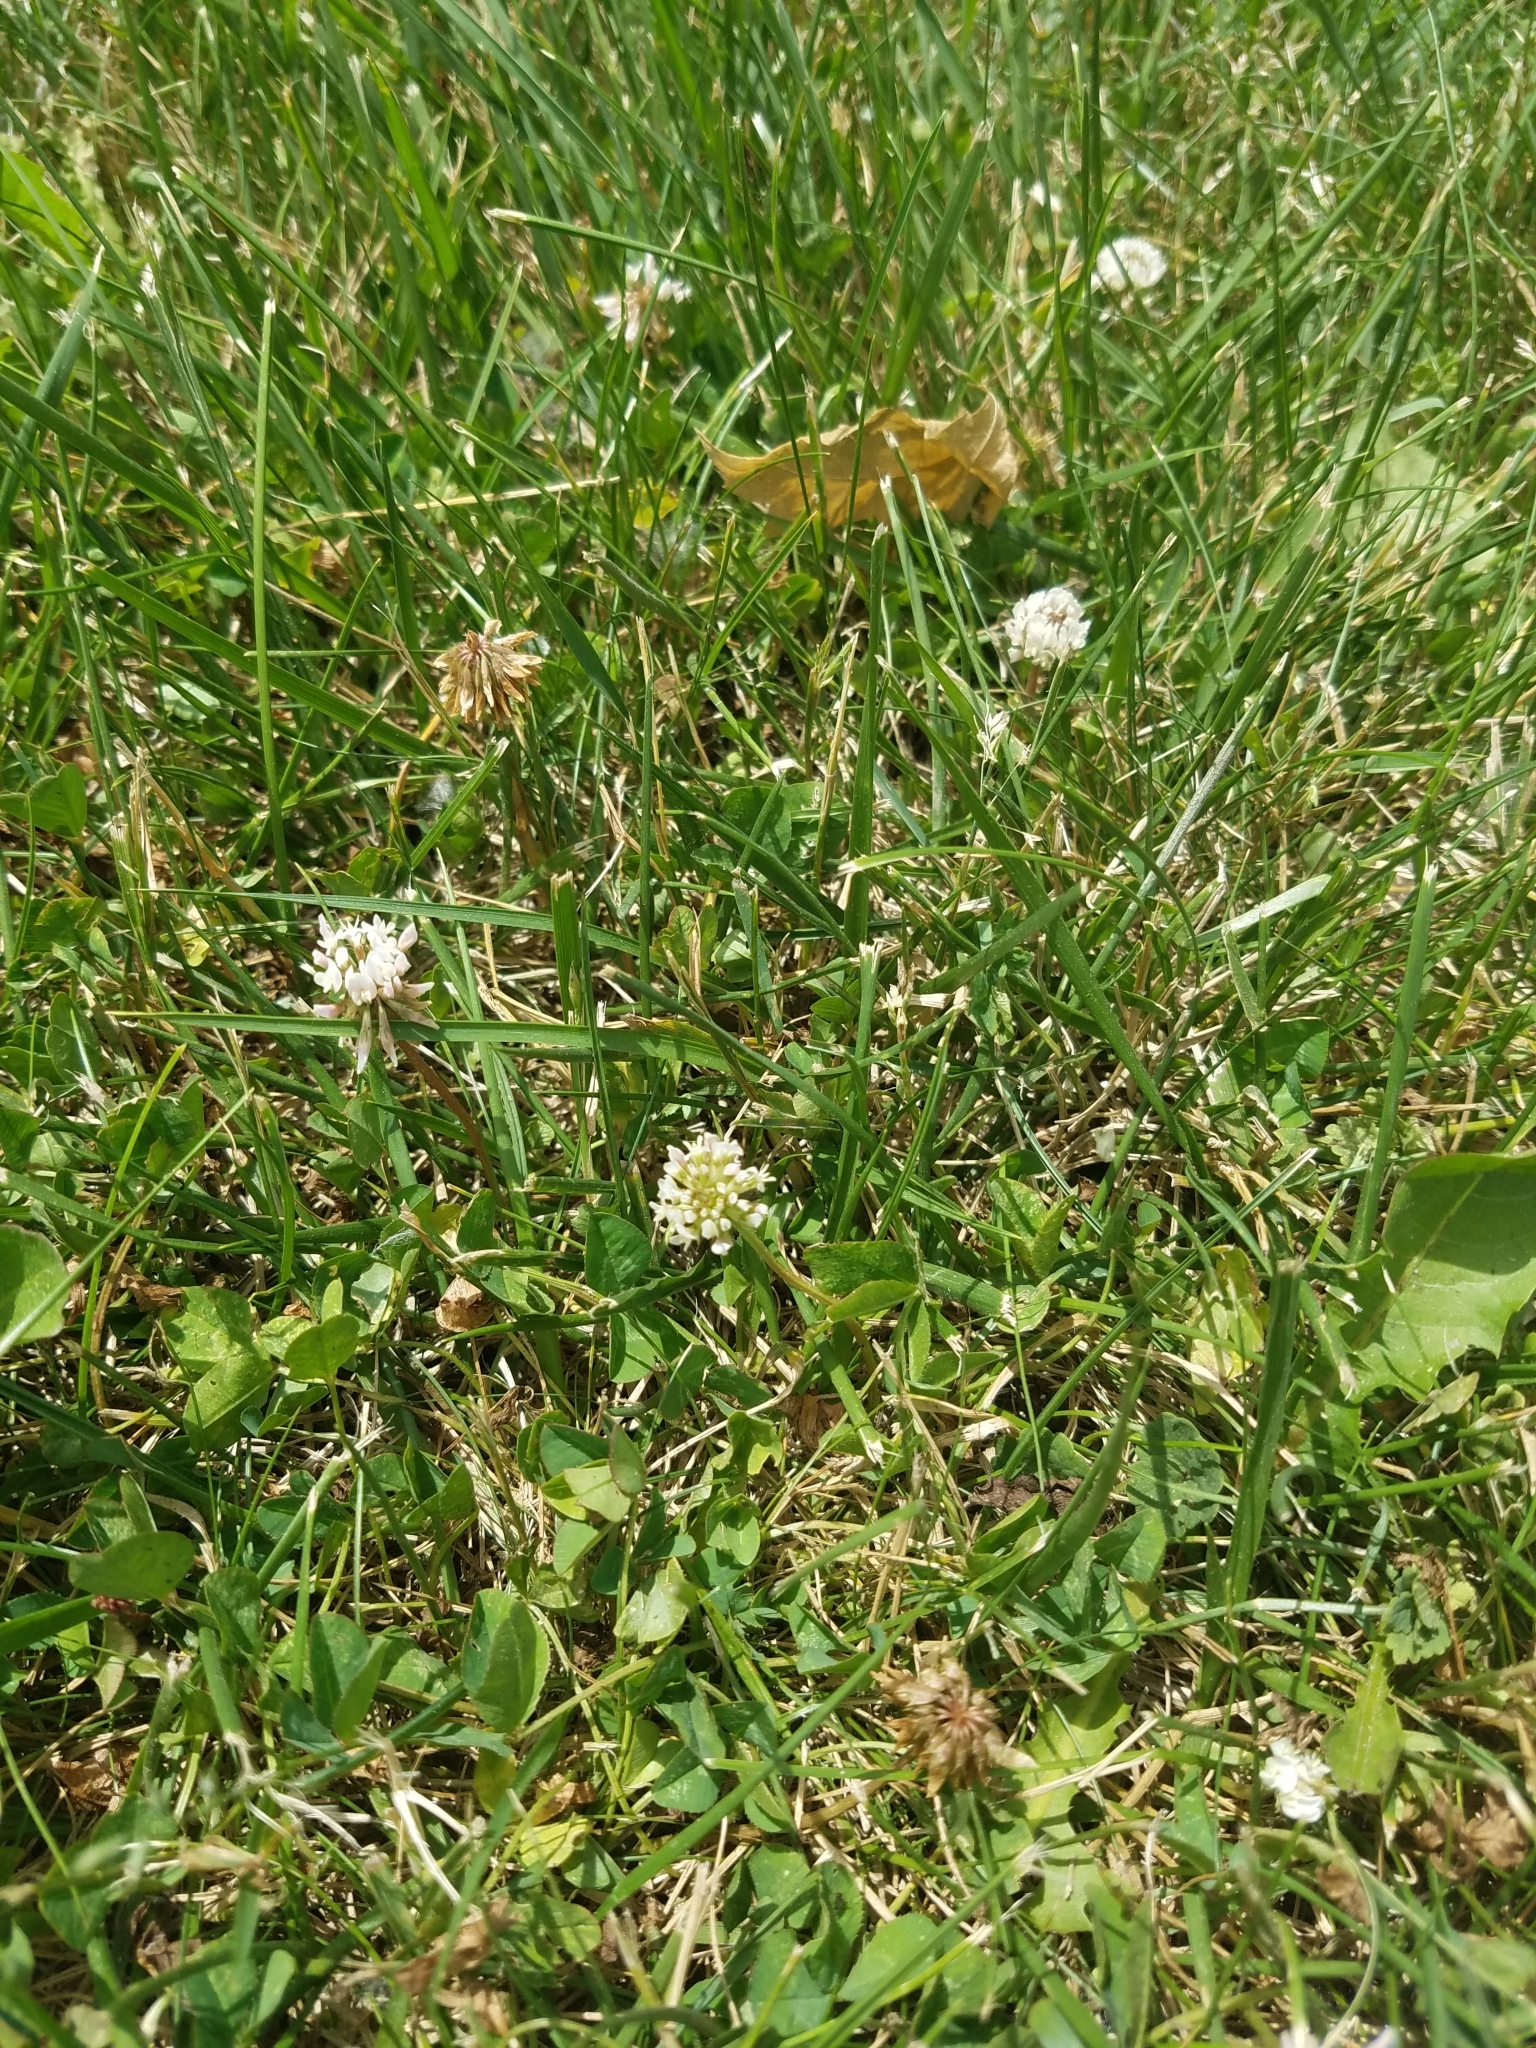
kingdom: Plantae
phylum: Tracheophyta
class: Magnoliopsida
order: Fabales
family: Fabaceae
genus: Trifolium
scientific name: Trifolium repens
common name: White clover
